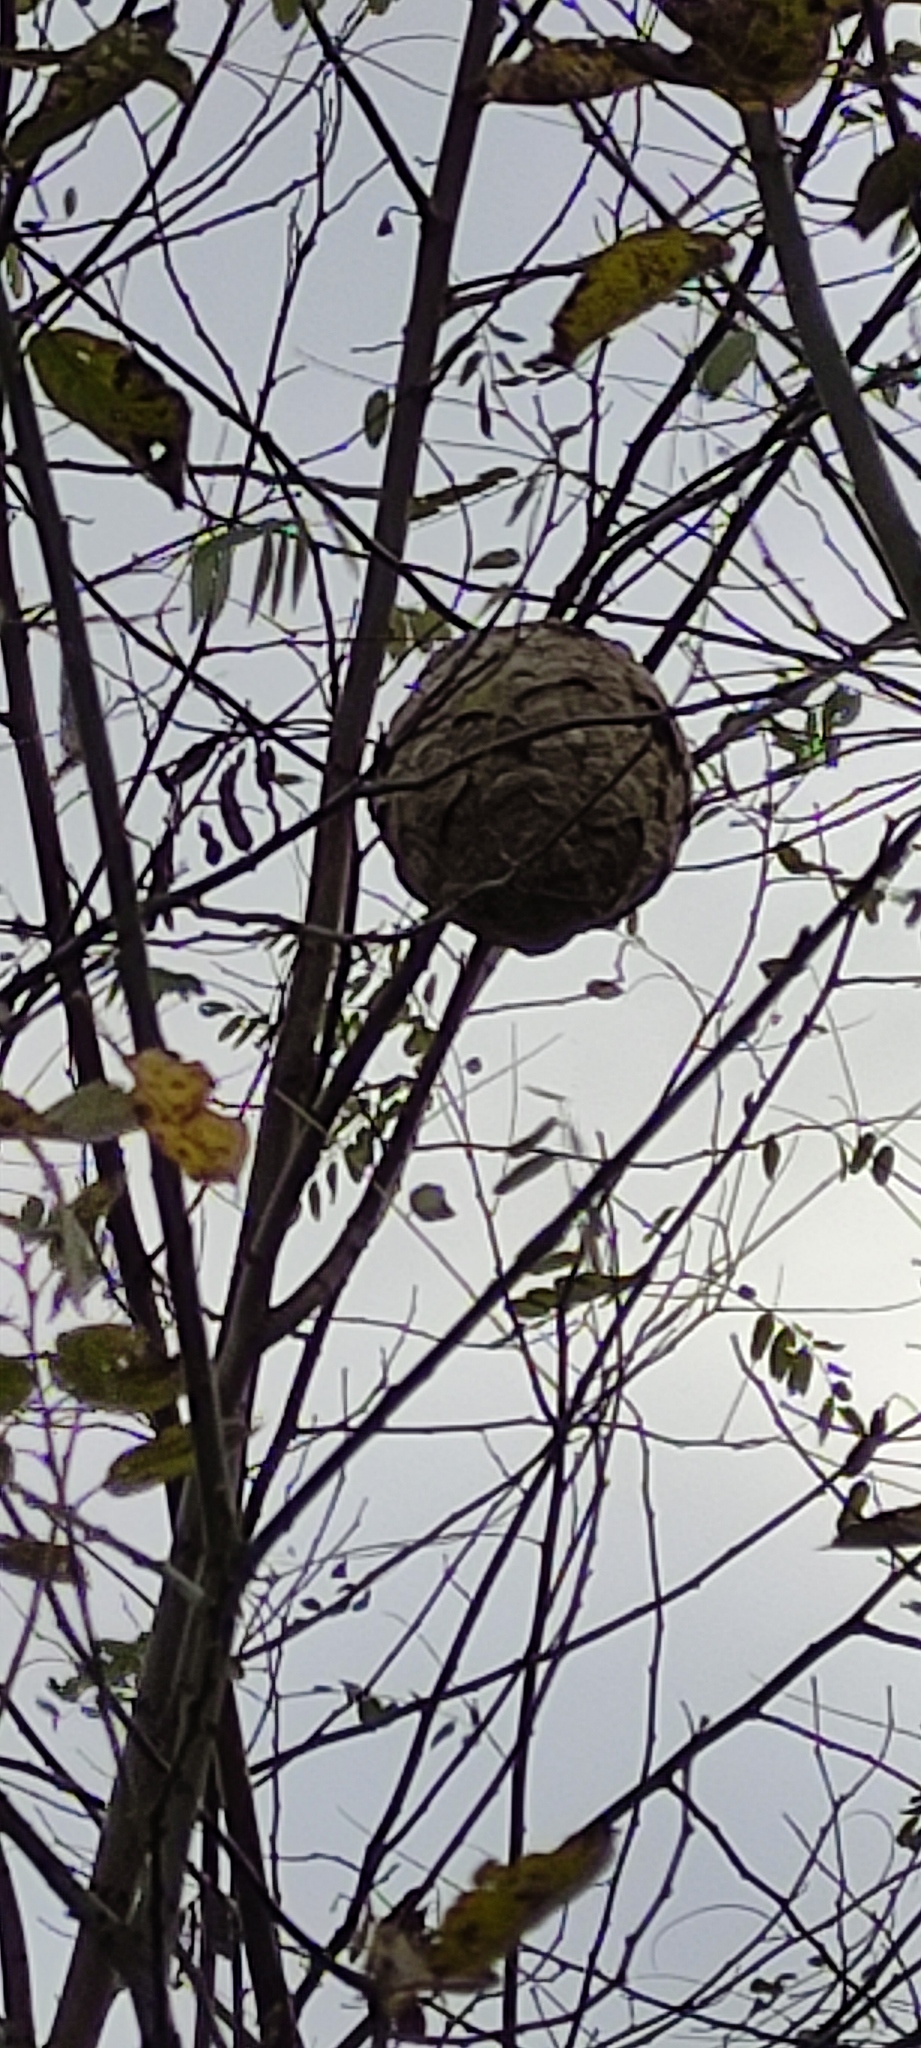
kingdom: Animalia
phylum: Arthropoda
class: Insecta
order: Hymenoptera
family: Vespidae
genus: Vespa
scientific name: Vespa velutina
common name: Asian hornet
